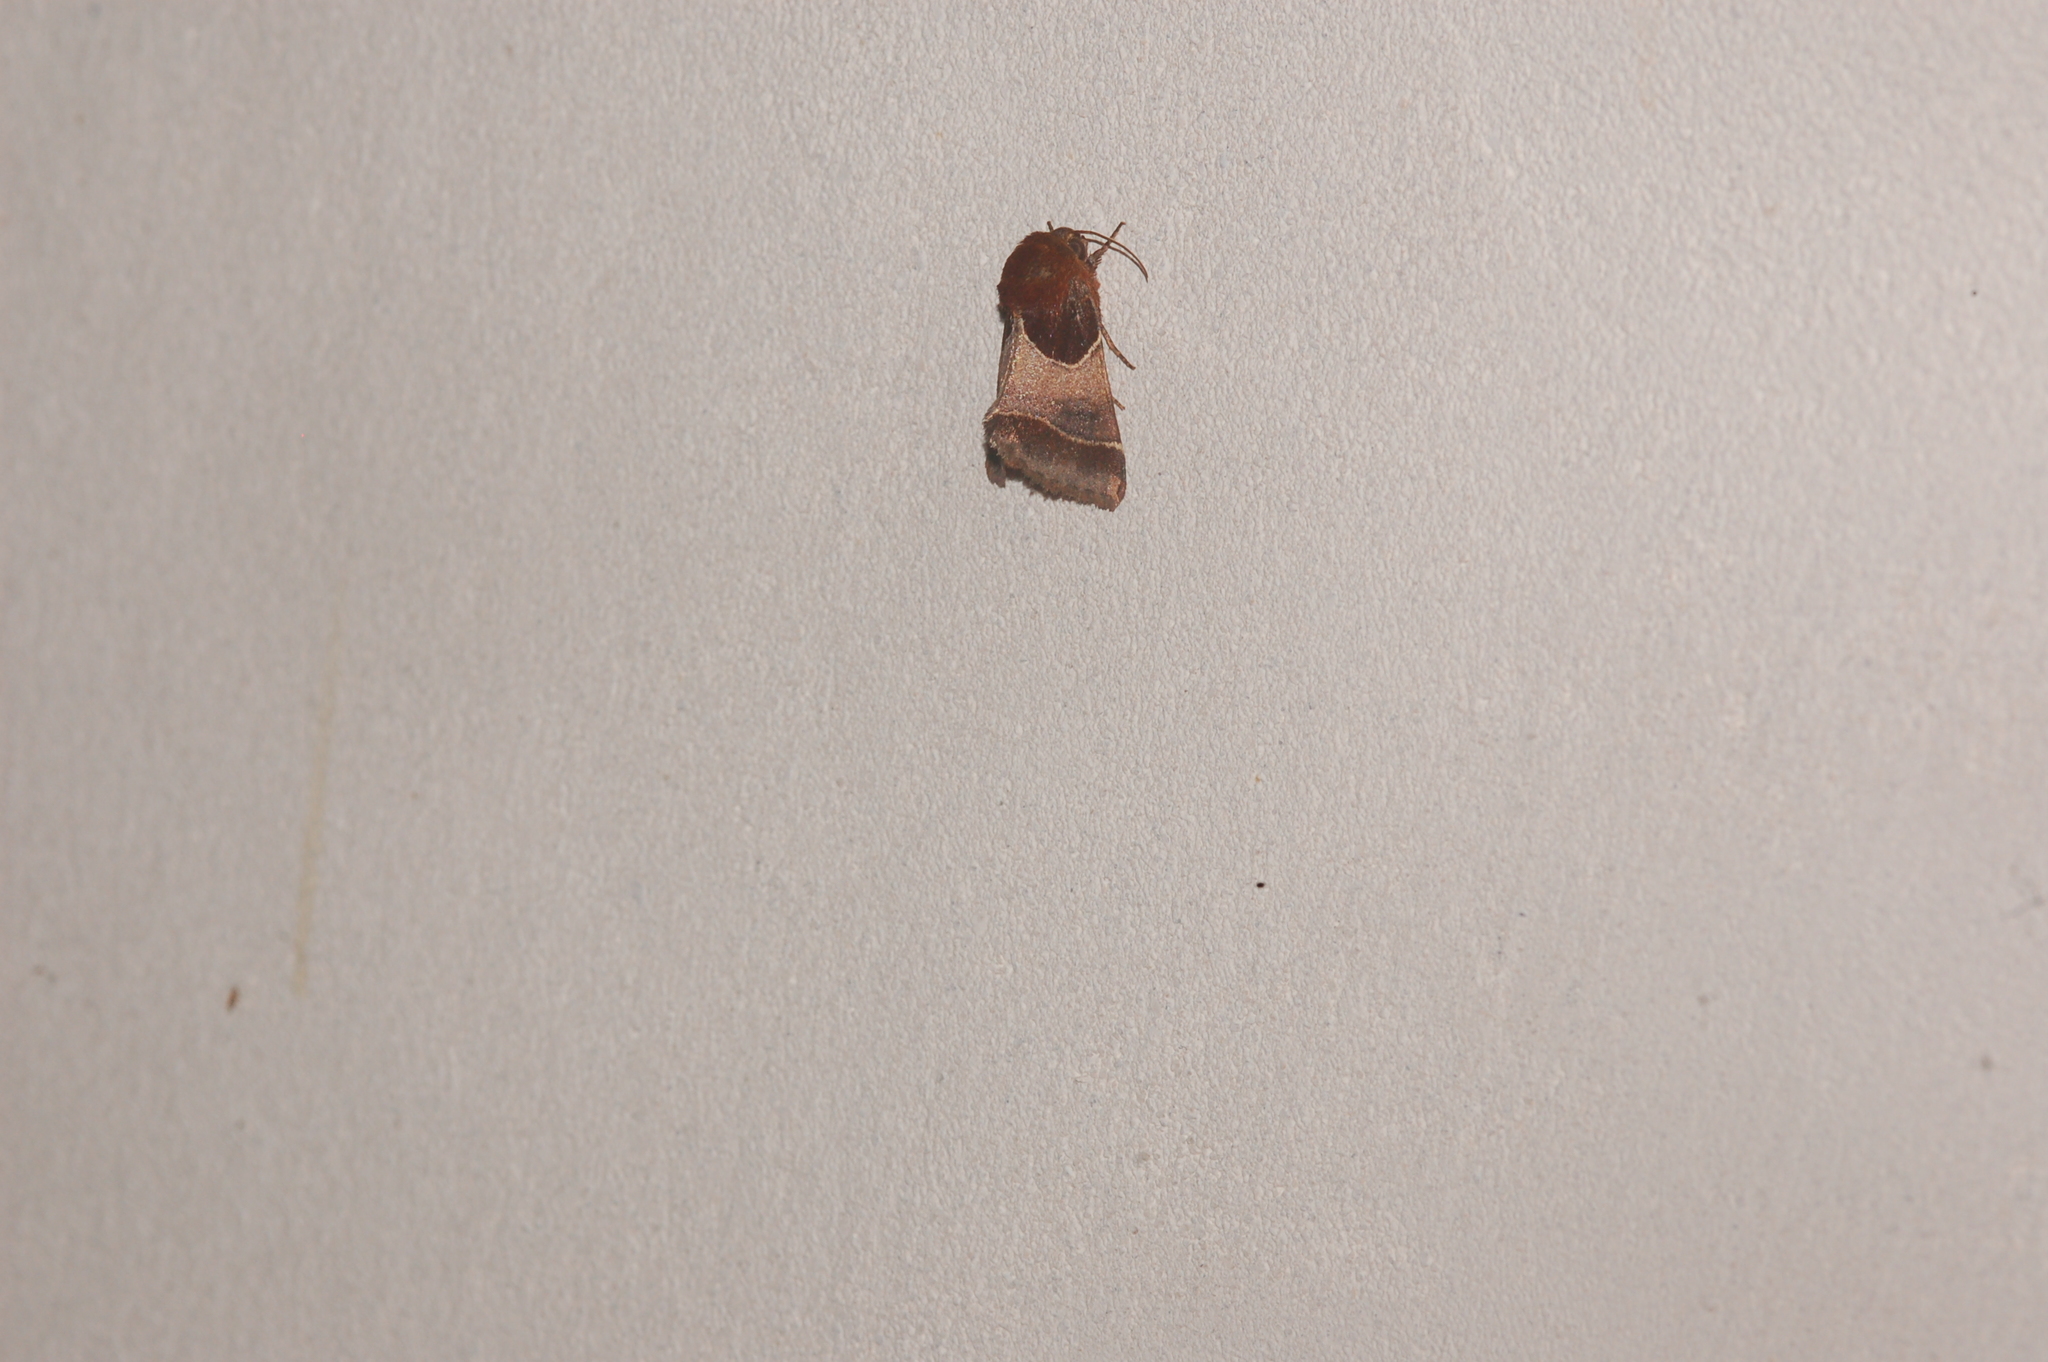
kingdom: Animalia
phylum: Arthropoda
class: Insecta
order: Lepidoptera
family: Noctuidae
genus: Schinia
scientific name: Schinia arcigera
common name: Arcigera flower moth
